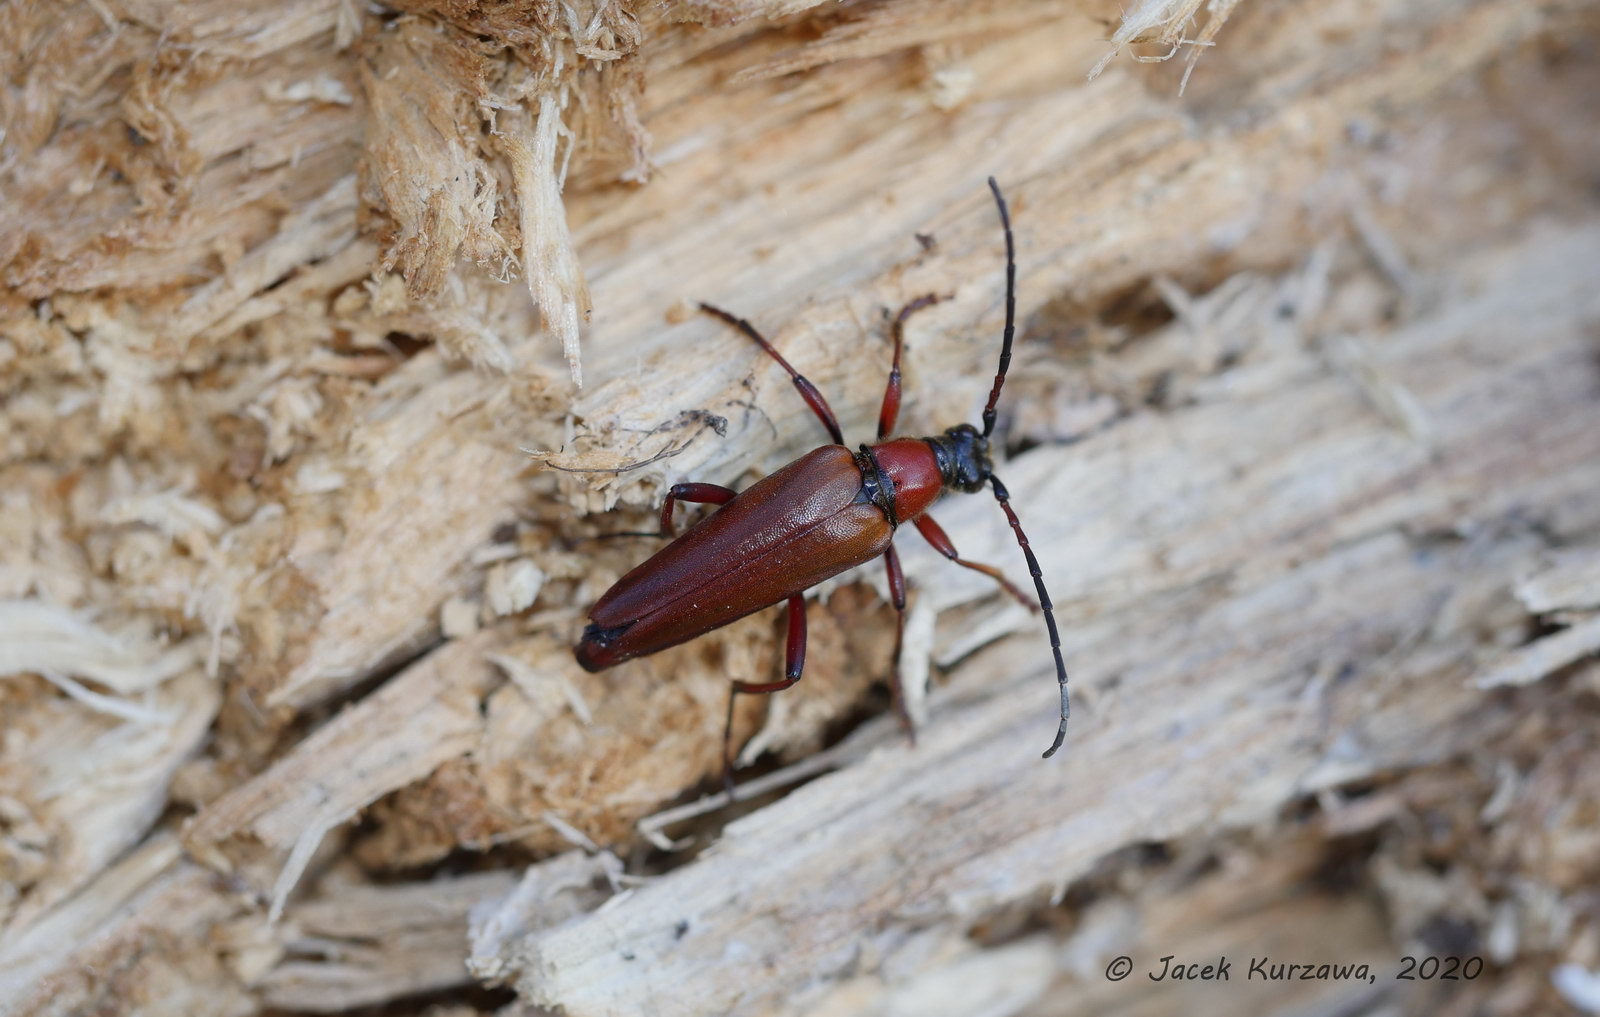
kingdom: Animalia
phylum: Arthropoda
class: Insecta
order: Coleoptera
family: Cerambycidae
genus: Leptura
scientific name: Leptura thoracica
